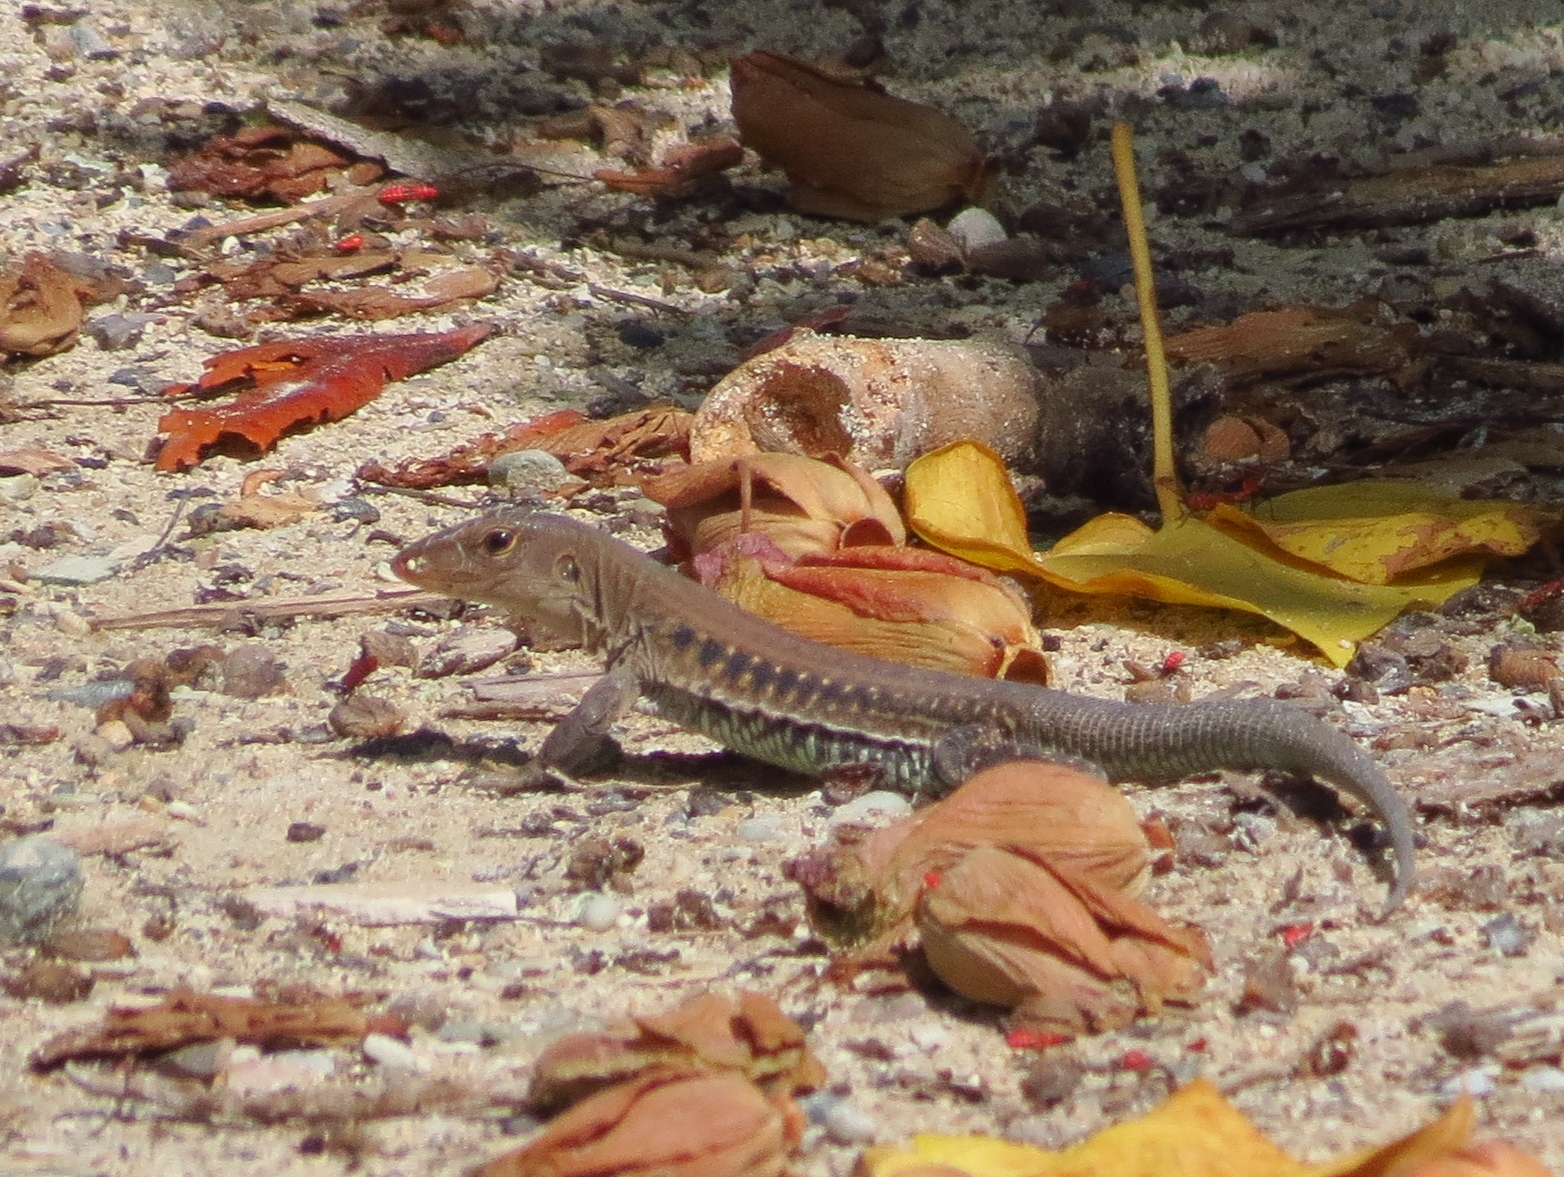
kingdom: Animalia
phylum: Chordata
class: Squamata
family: Teiidae
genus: Pholidoscelis
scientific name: Pholidoscelis exsul
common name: Common puerto rican ameiva
